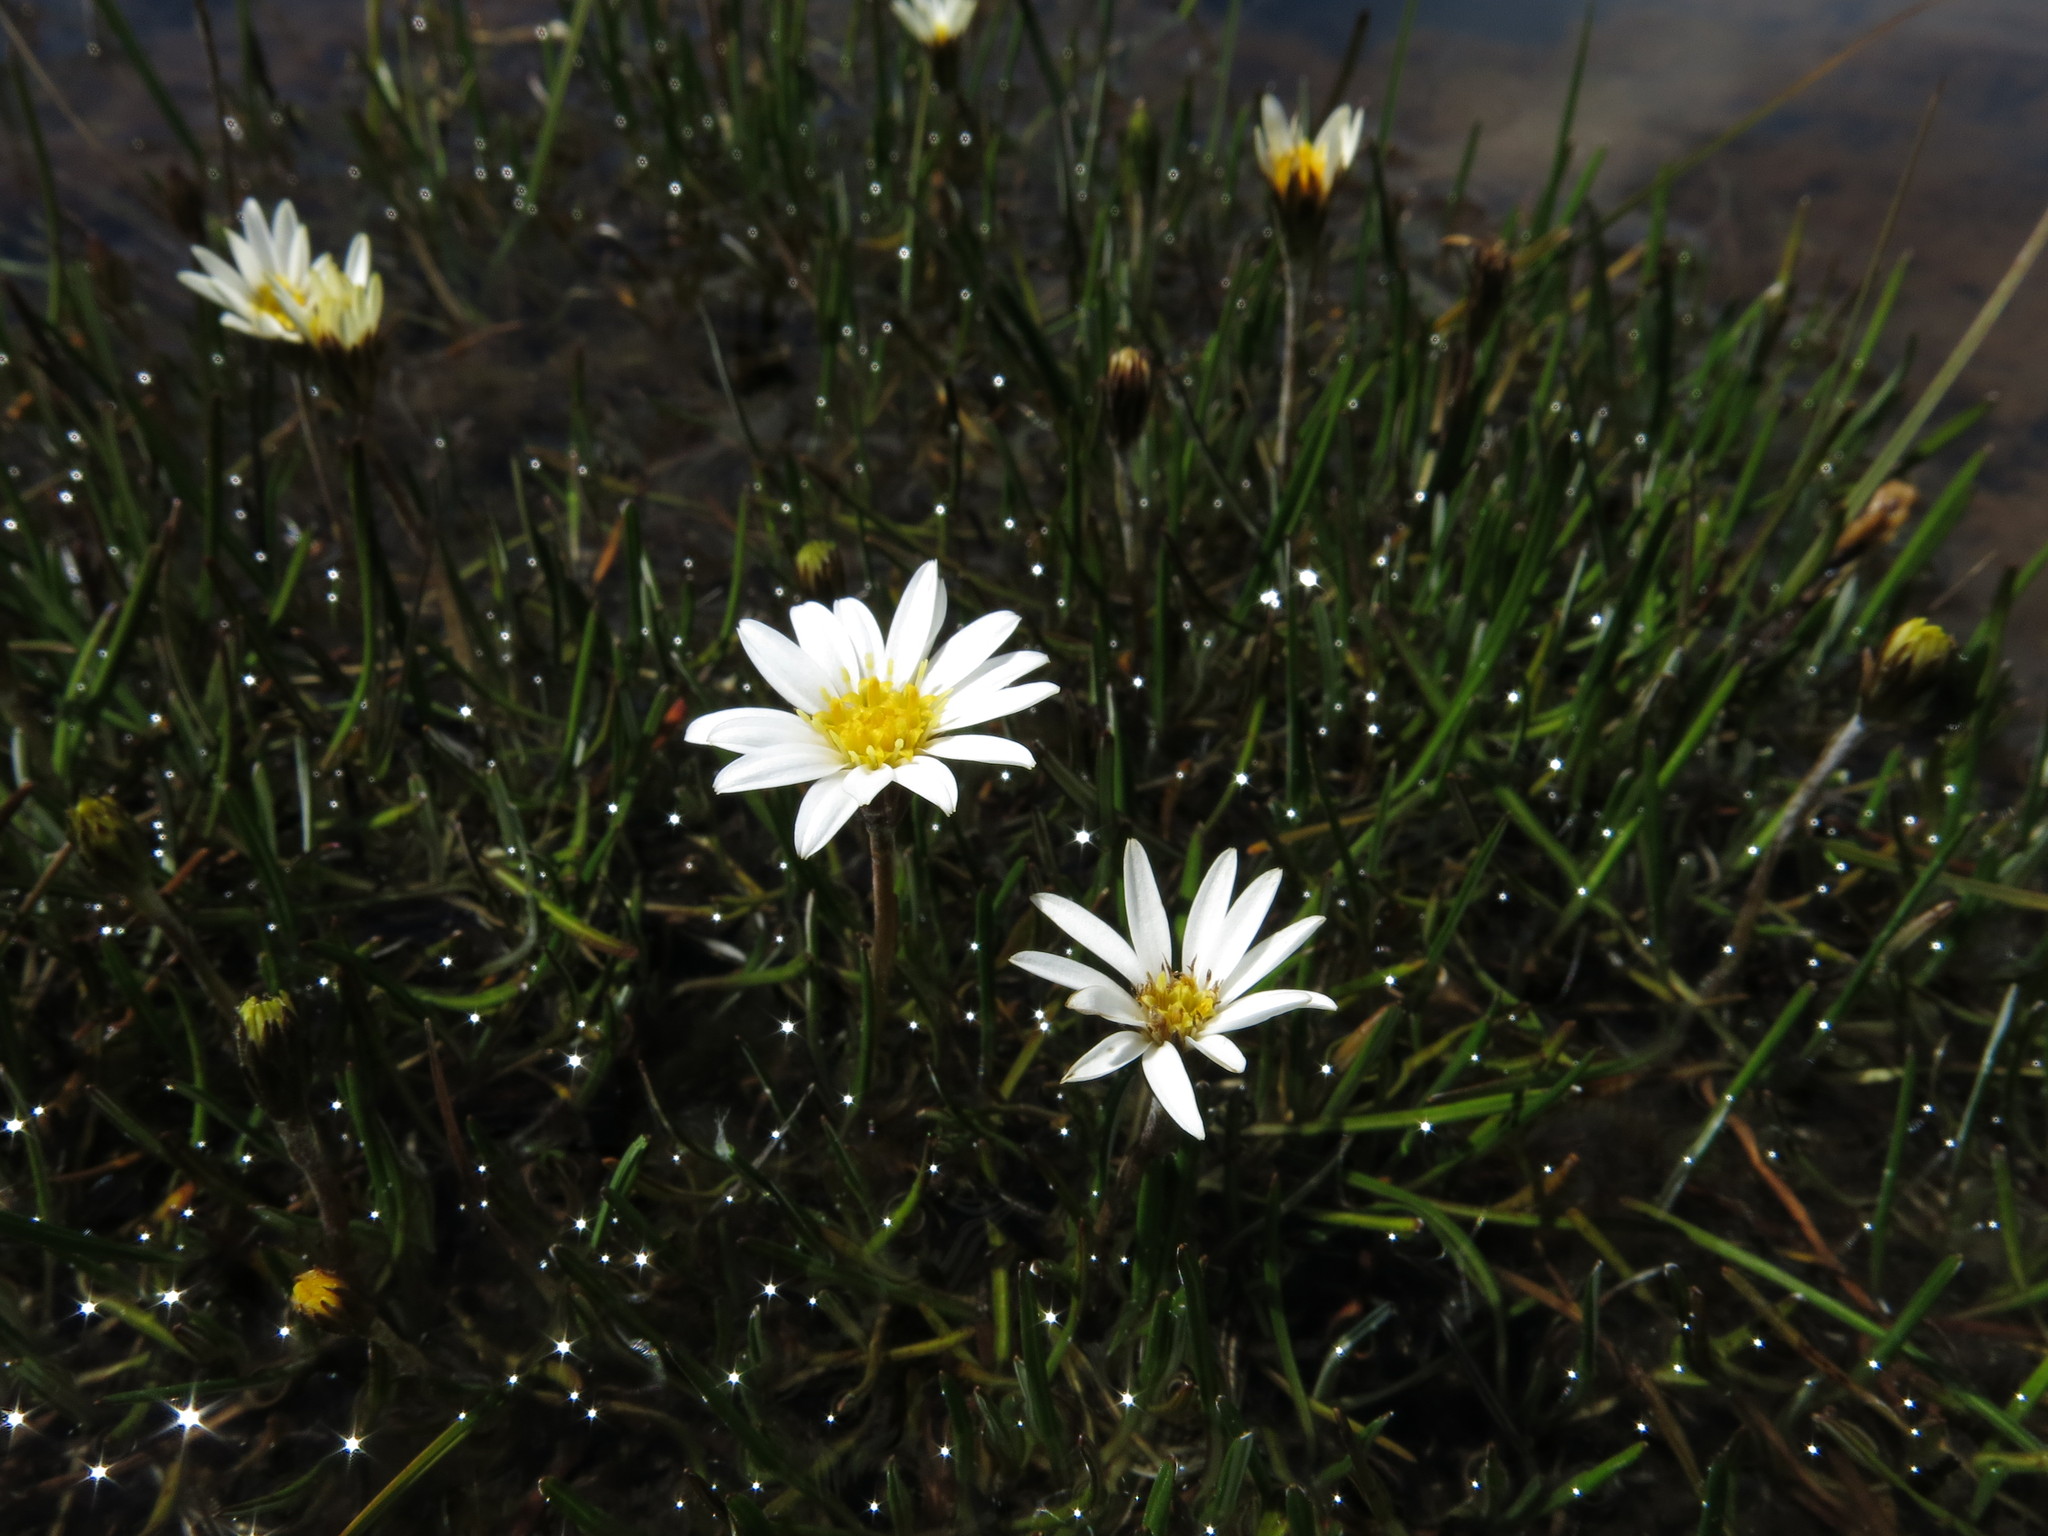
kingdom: Plantae
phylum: Tracheophyta
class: Magnoliopsida
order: Asterales
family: Asteraceae
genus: Celmisia
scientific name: Celmisia alpina
